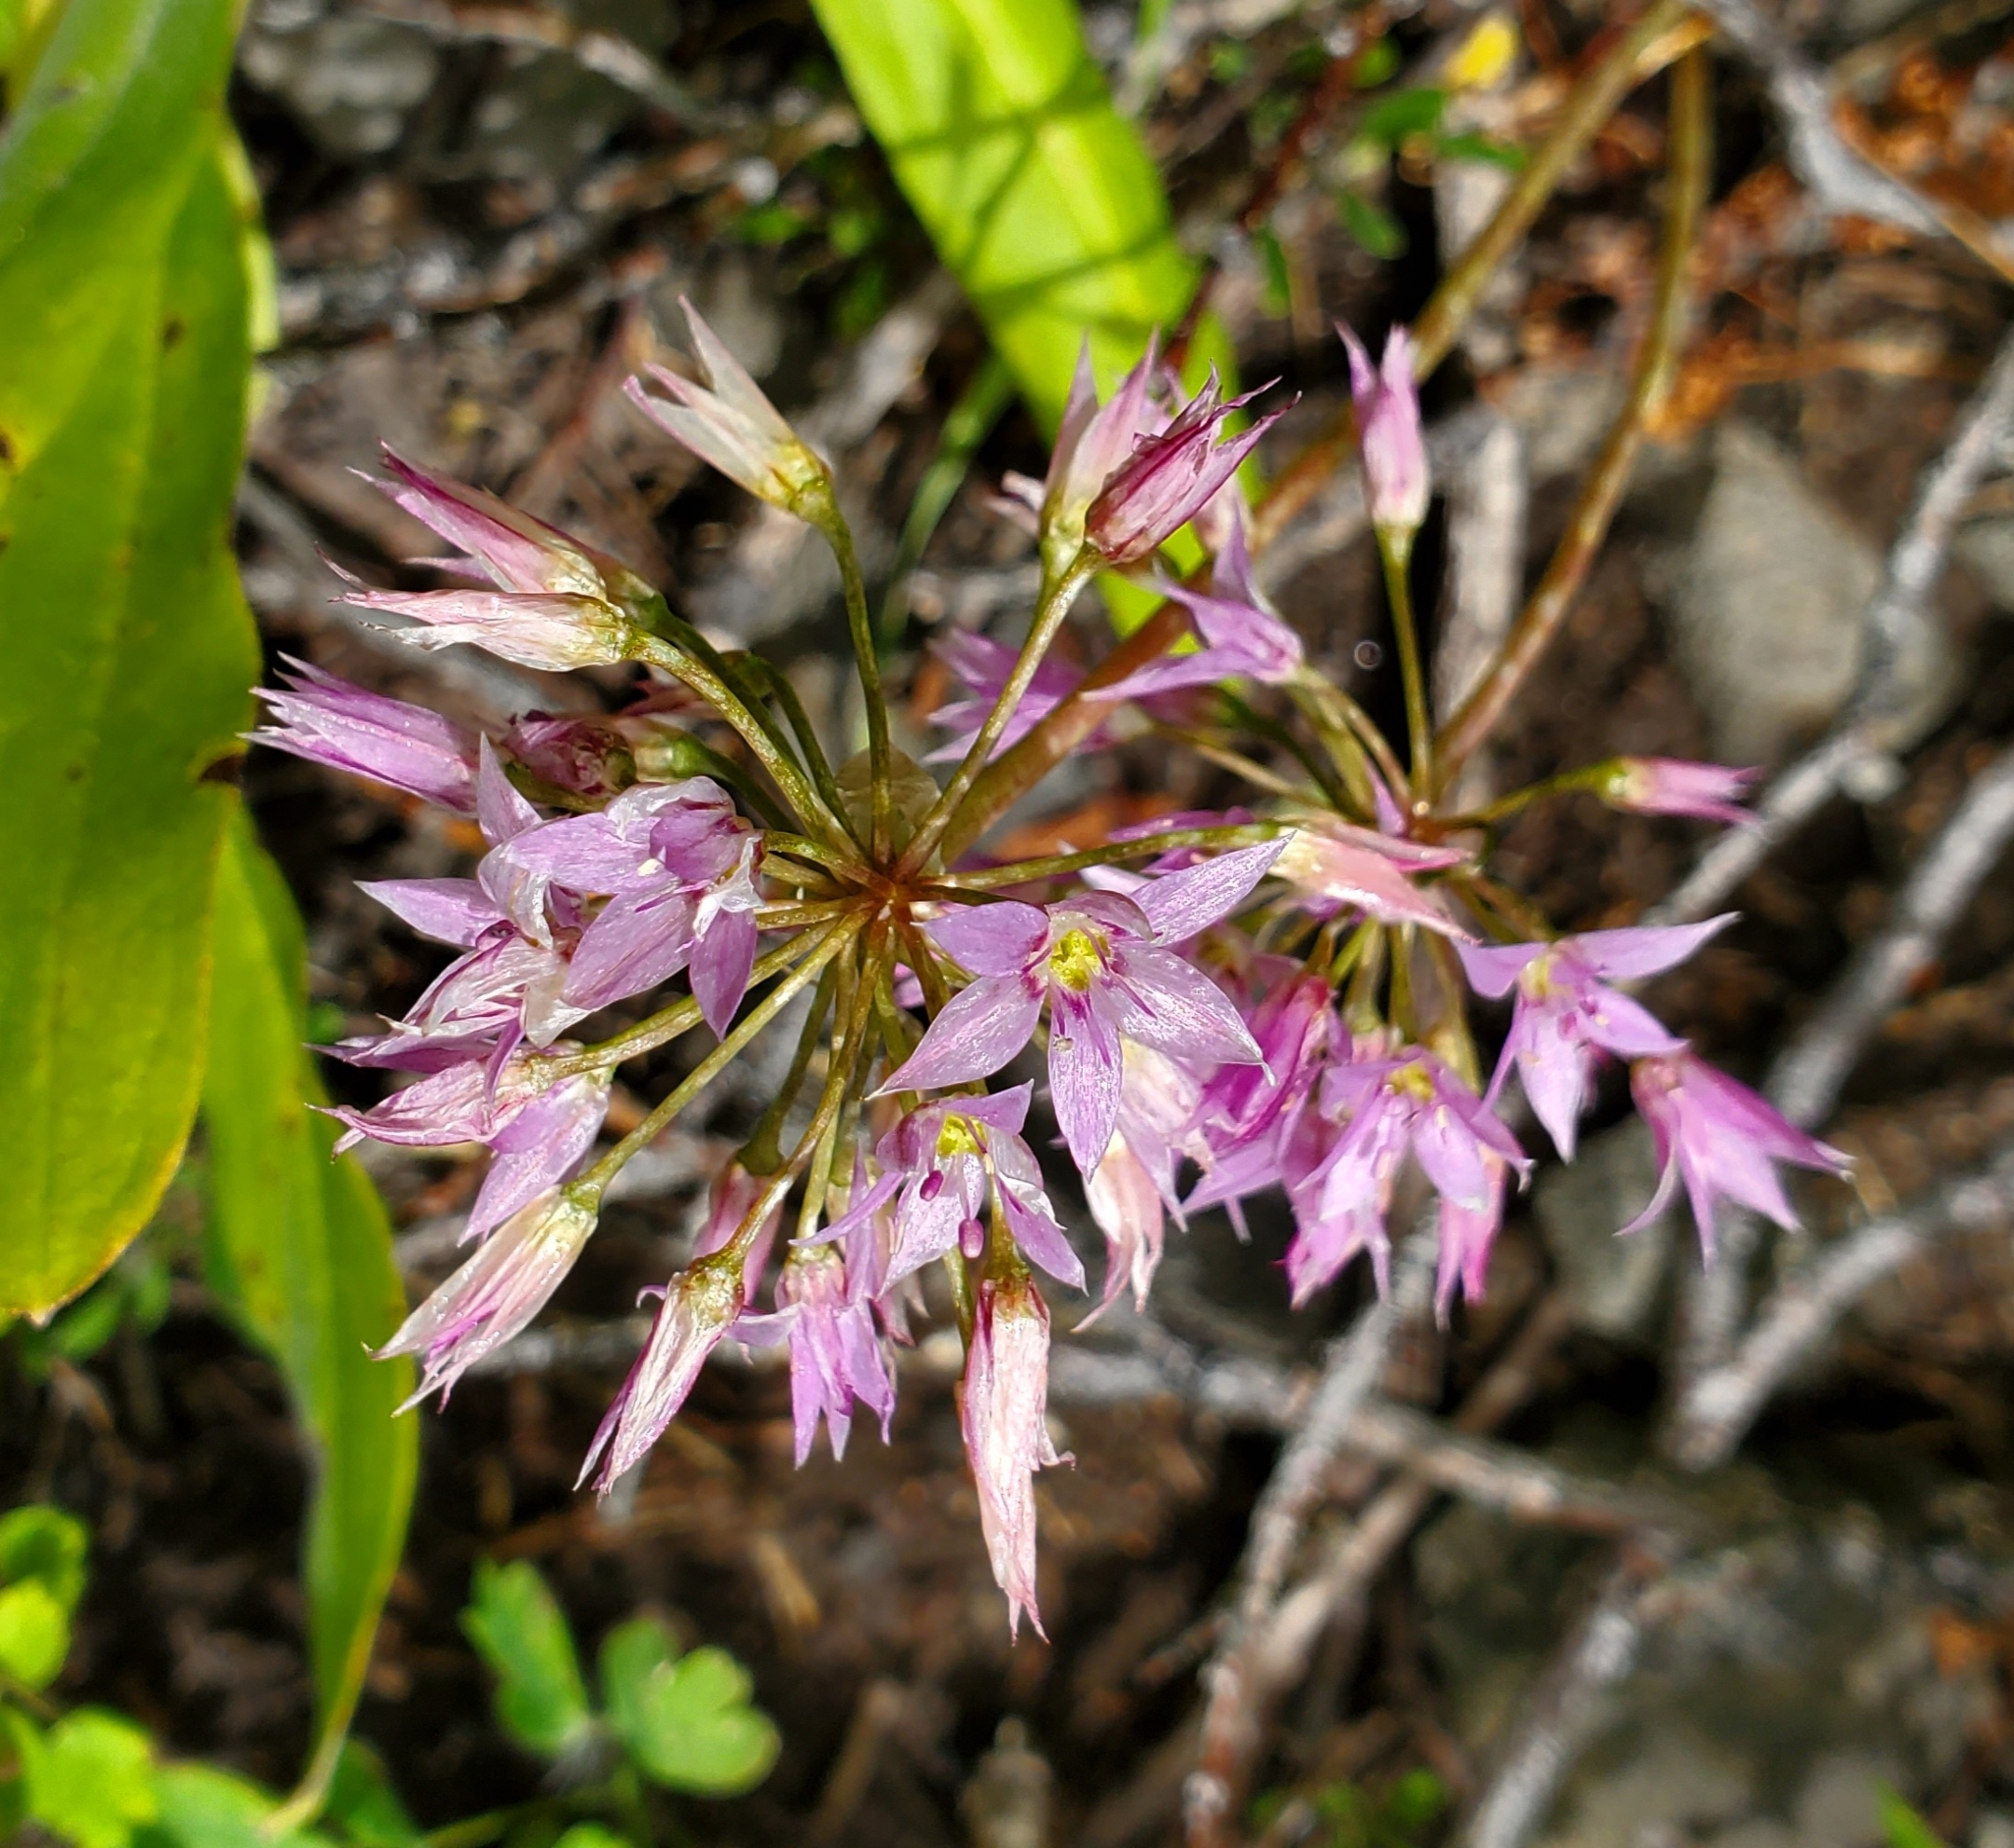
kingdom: Plantae
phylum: Tracheophyta
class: Liliopsida
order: Asparagales
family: Amaryllidaceae
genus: Allium
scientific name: Allium bisceptrum
